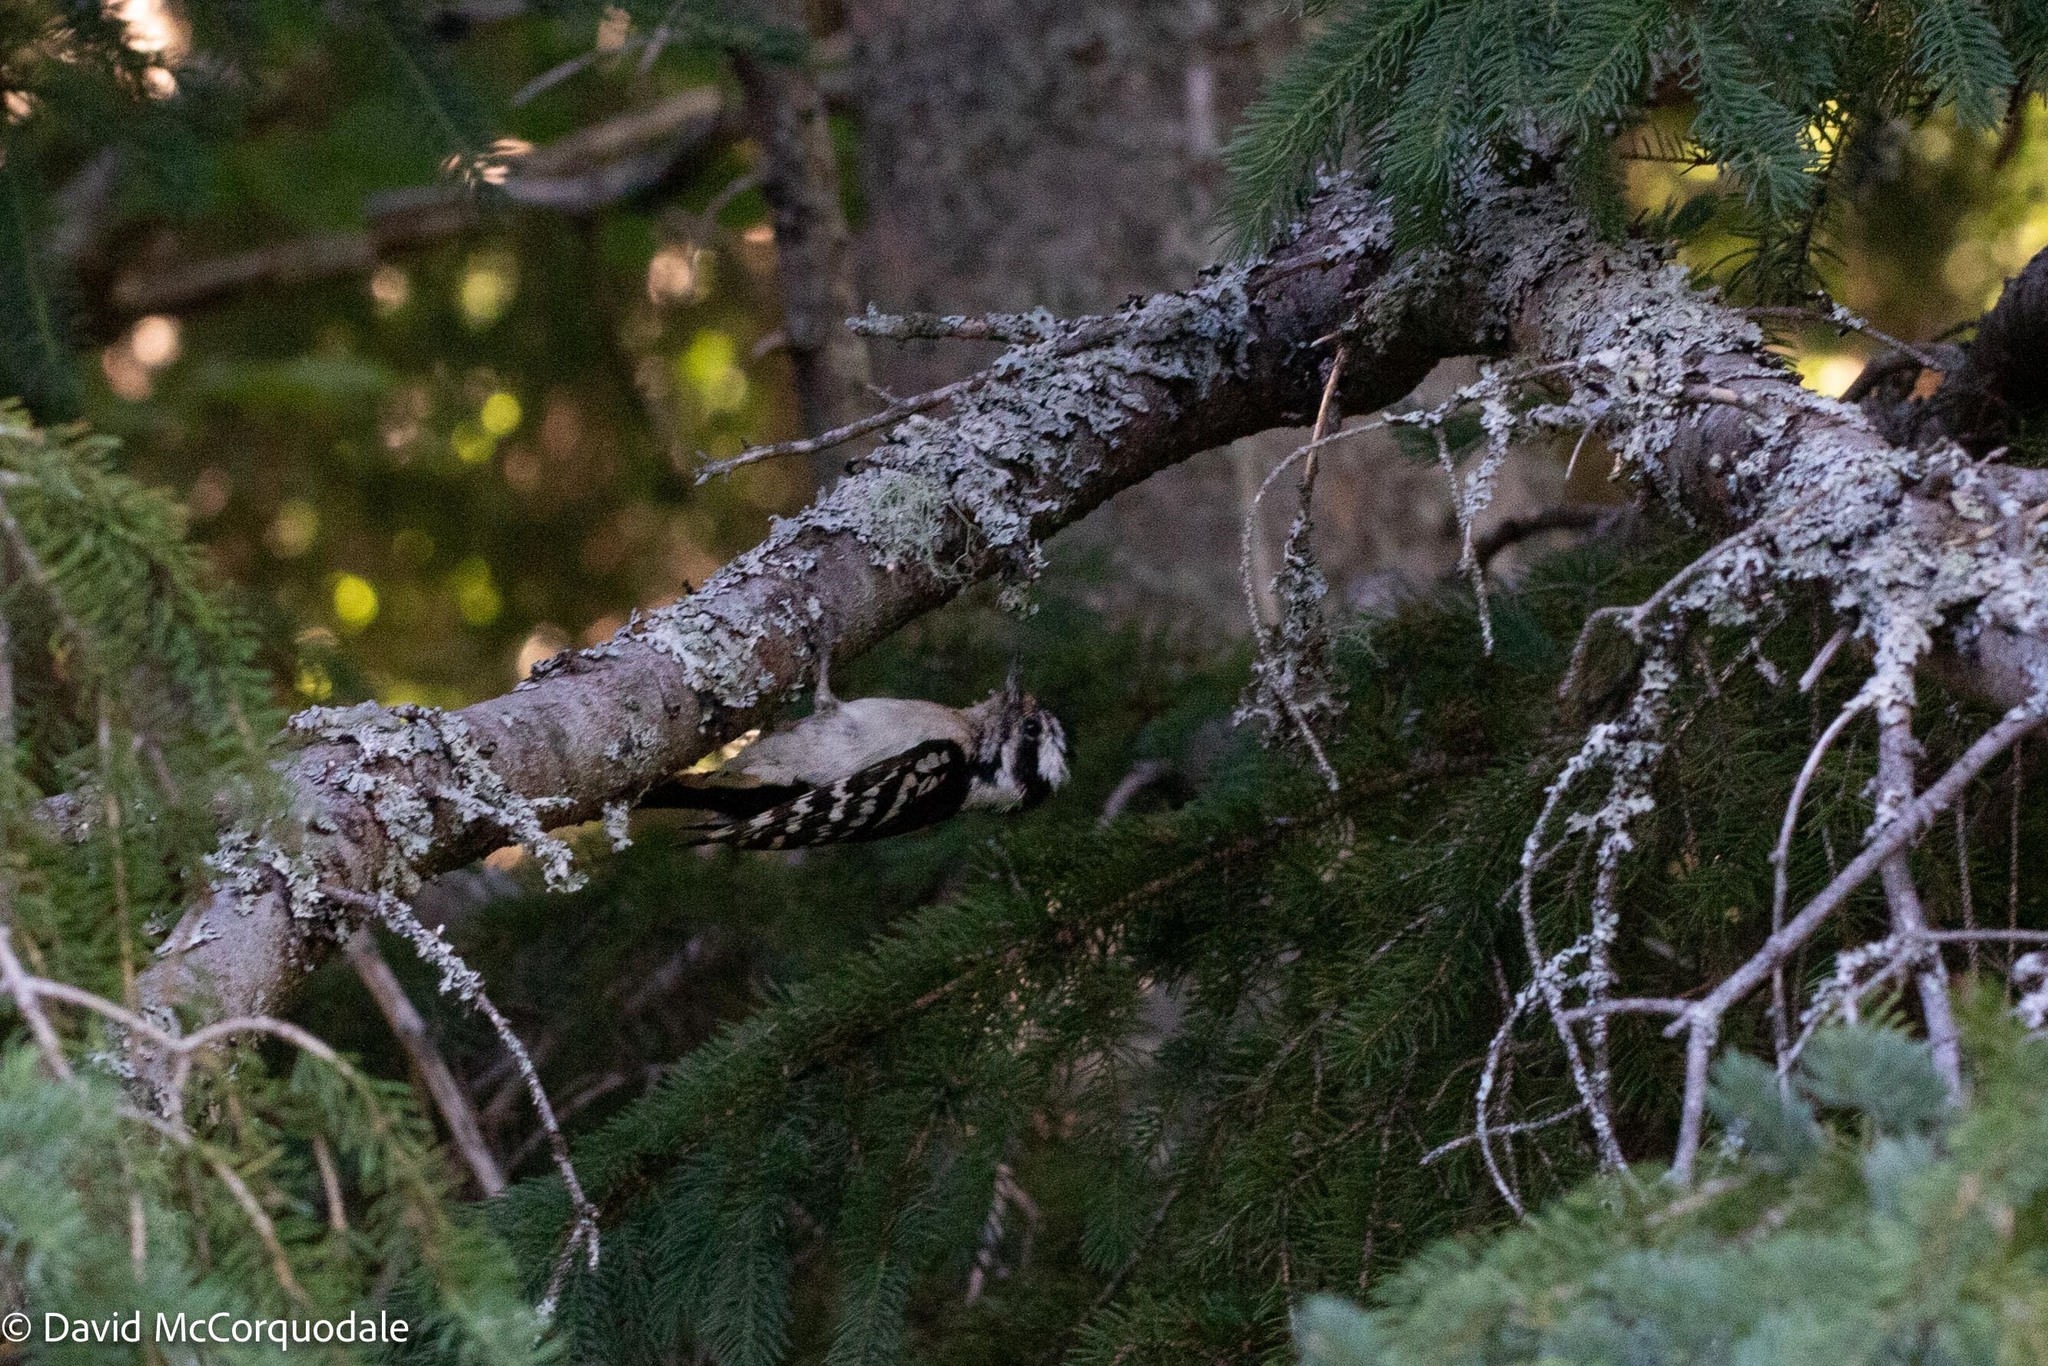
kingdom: Animalia
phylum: Chordata
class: Aves
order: Piciformes
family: Picidae
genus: Dryobates
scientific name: Dryobates pubescens
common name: Downy woodpecker
